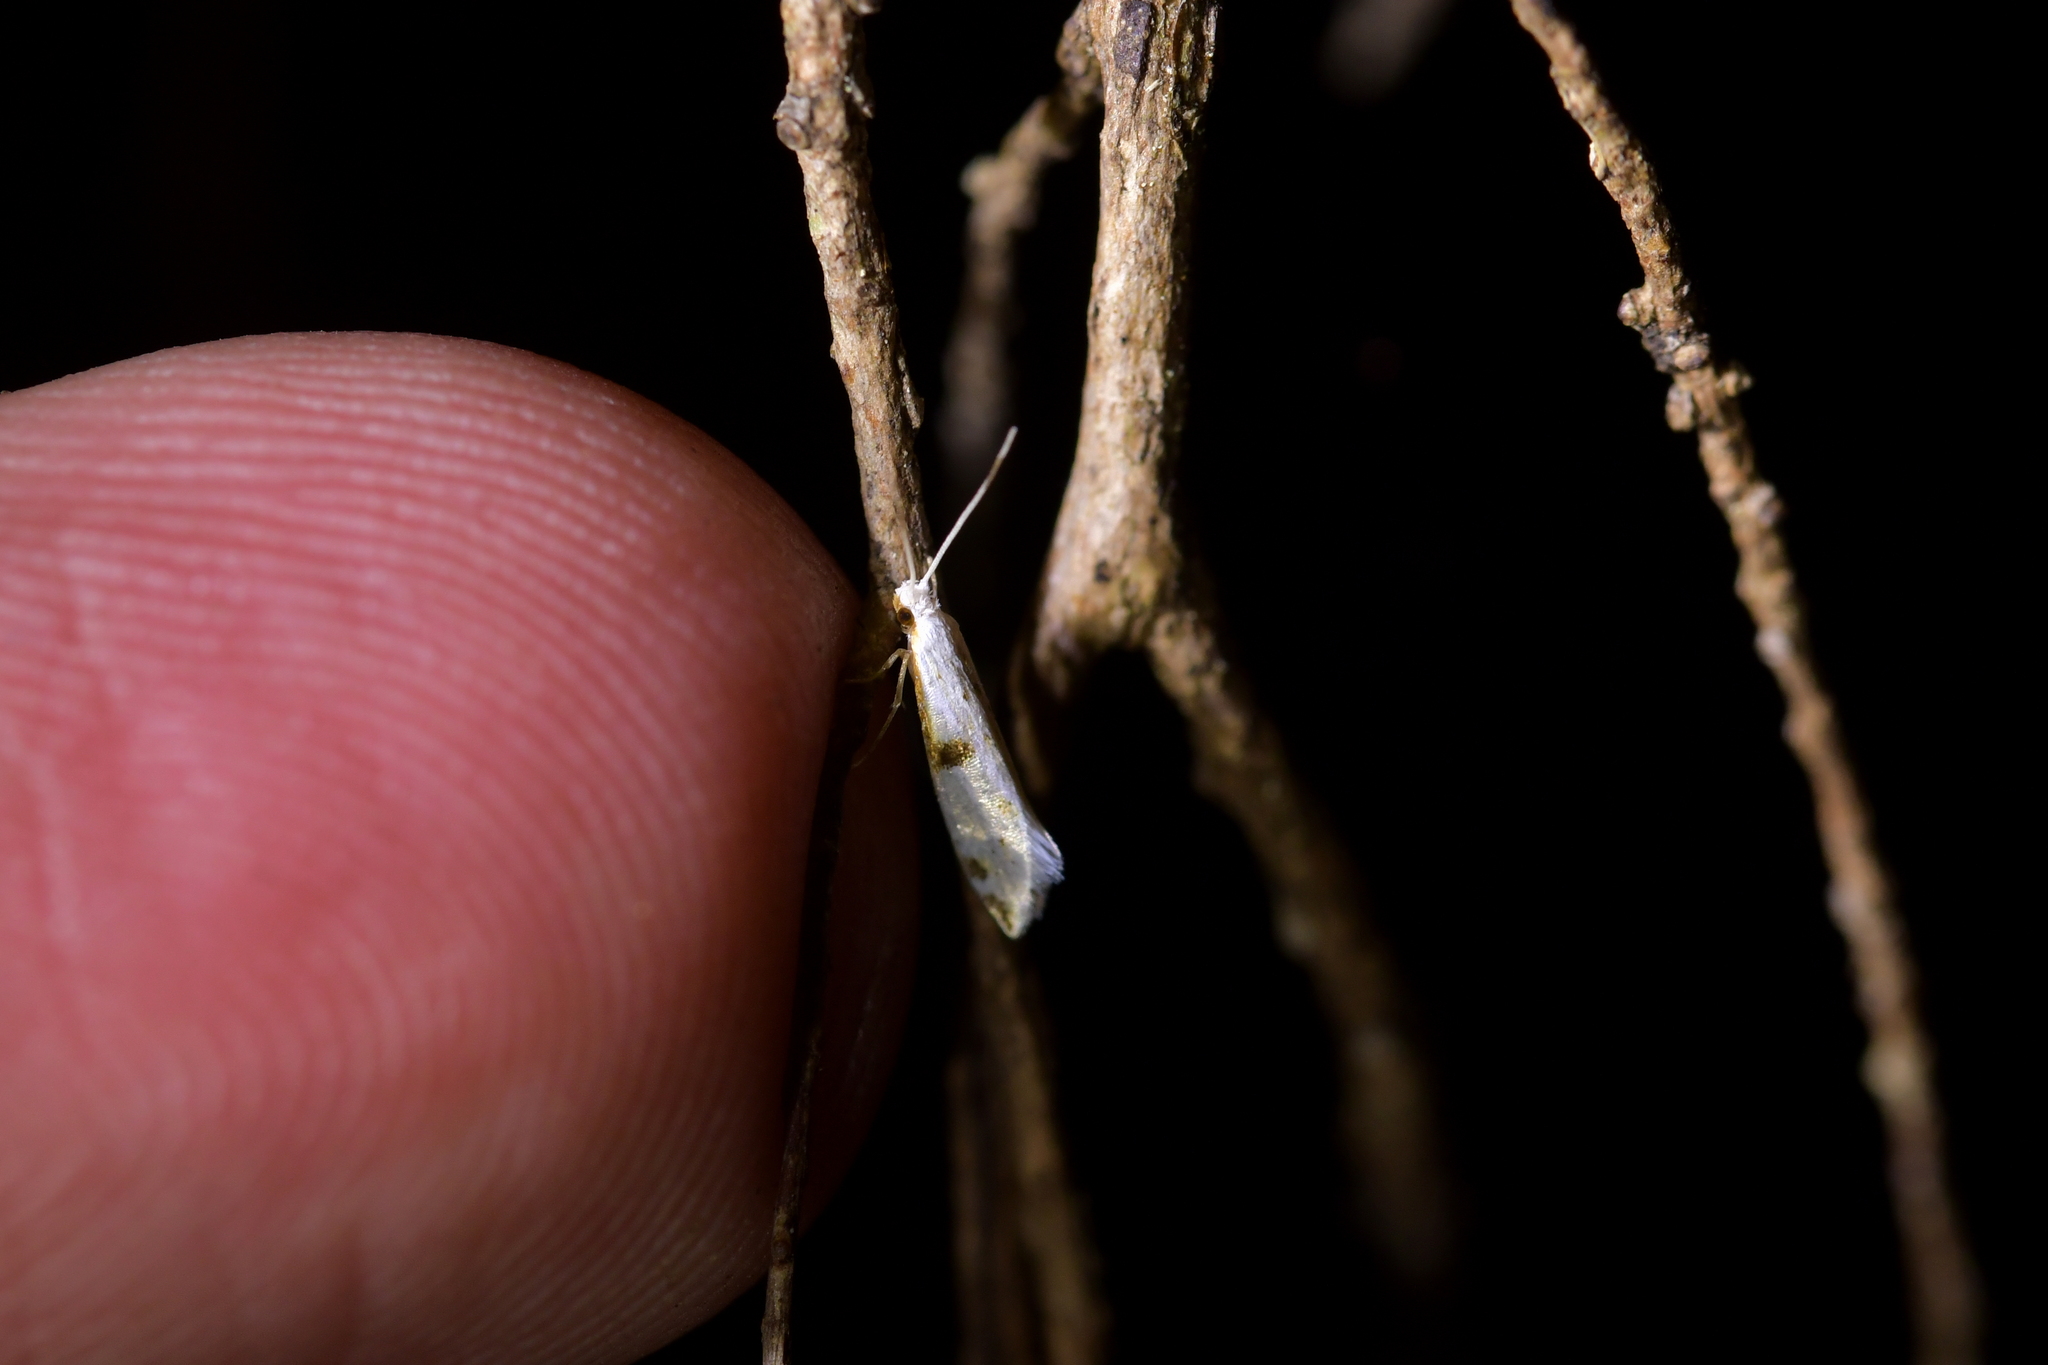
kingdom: Animalia
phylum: Arthropoda
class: Insecta
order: Lepidoptera
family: Tineidae
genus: Sagephora
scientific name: Sagephora felix
